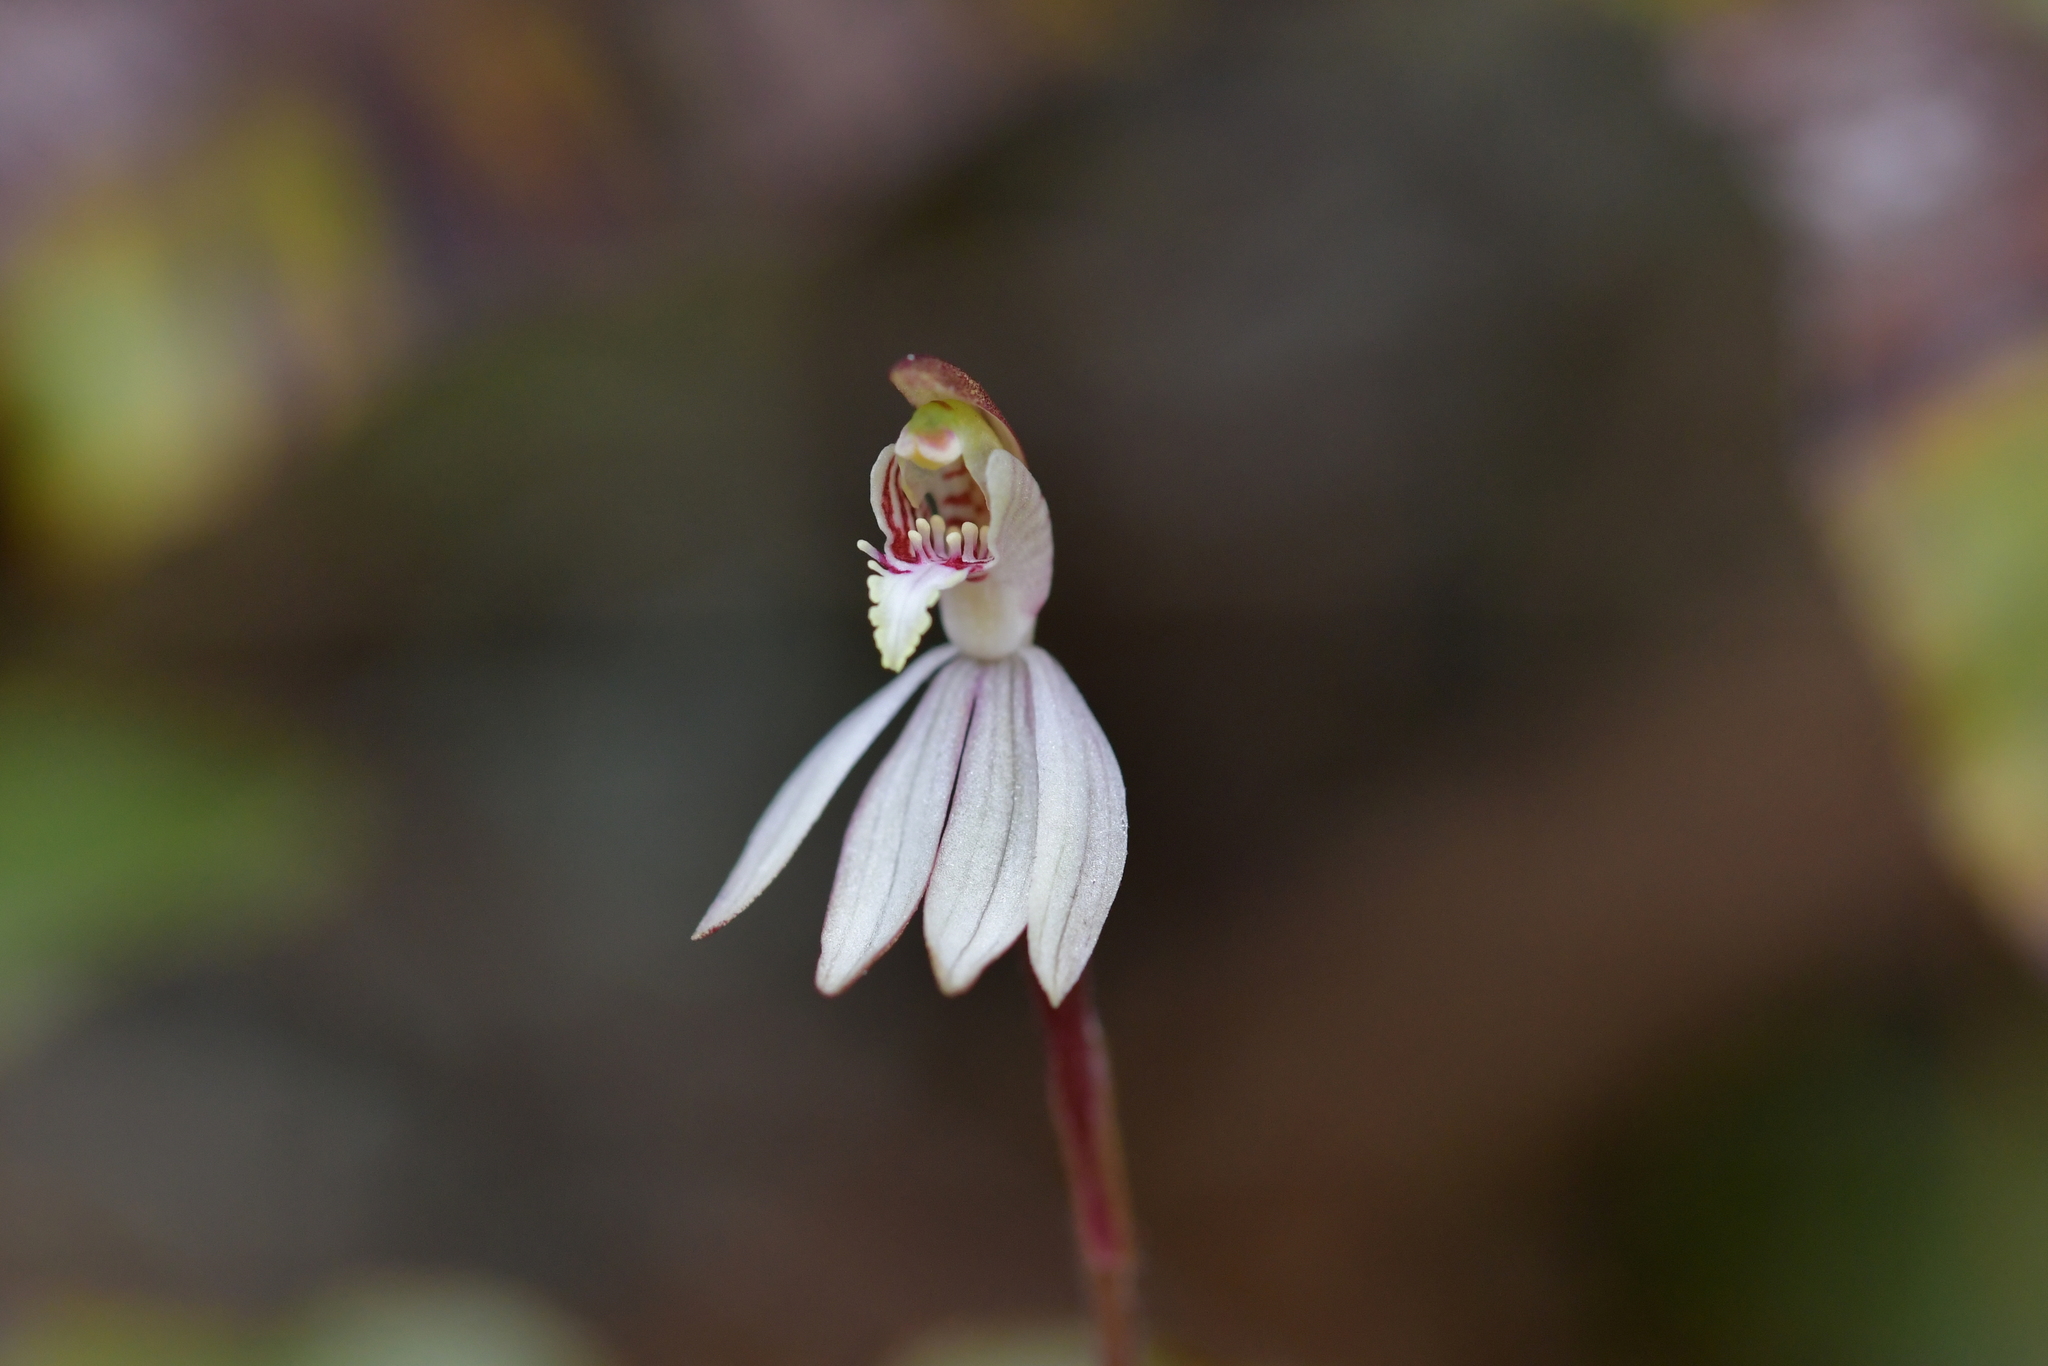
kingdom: Plantae
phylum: Tracheophyta
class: Liliopsida
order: Asparagales
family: Orchidaceae
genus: Caladenia
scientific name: Caladenia chlorostyla
